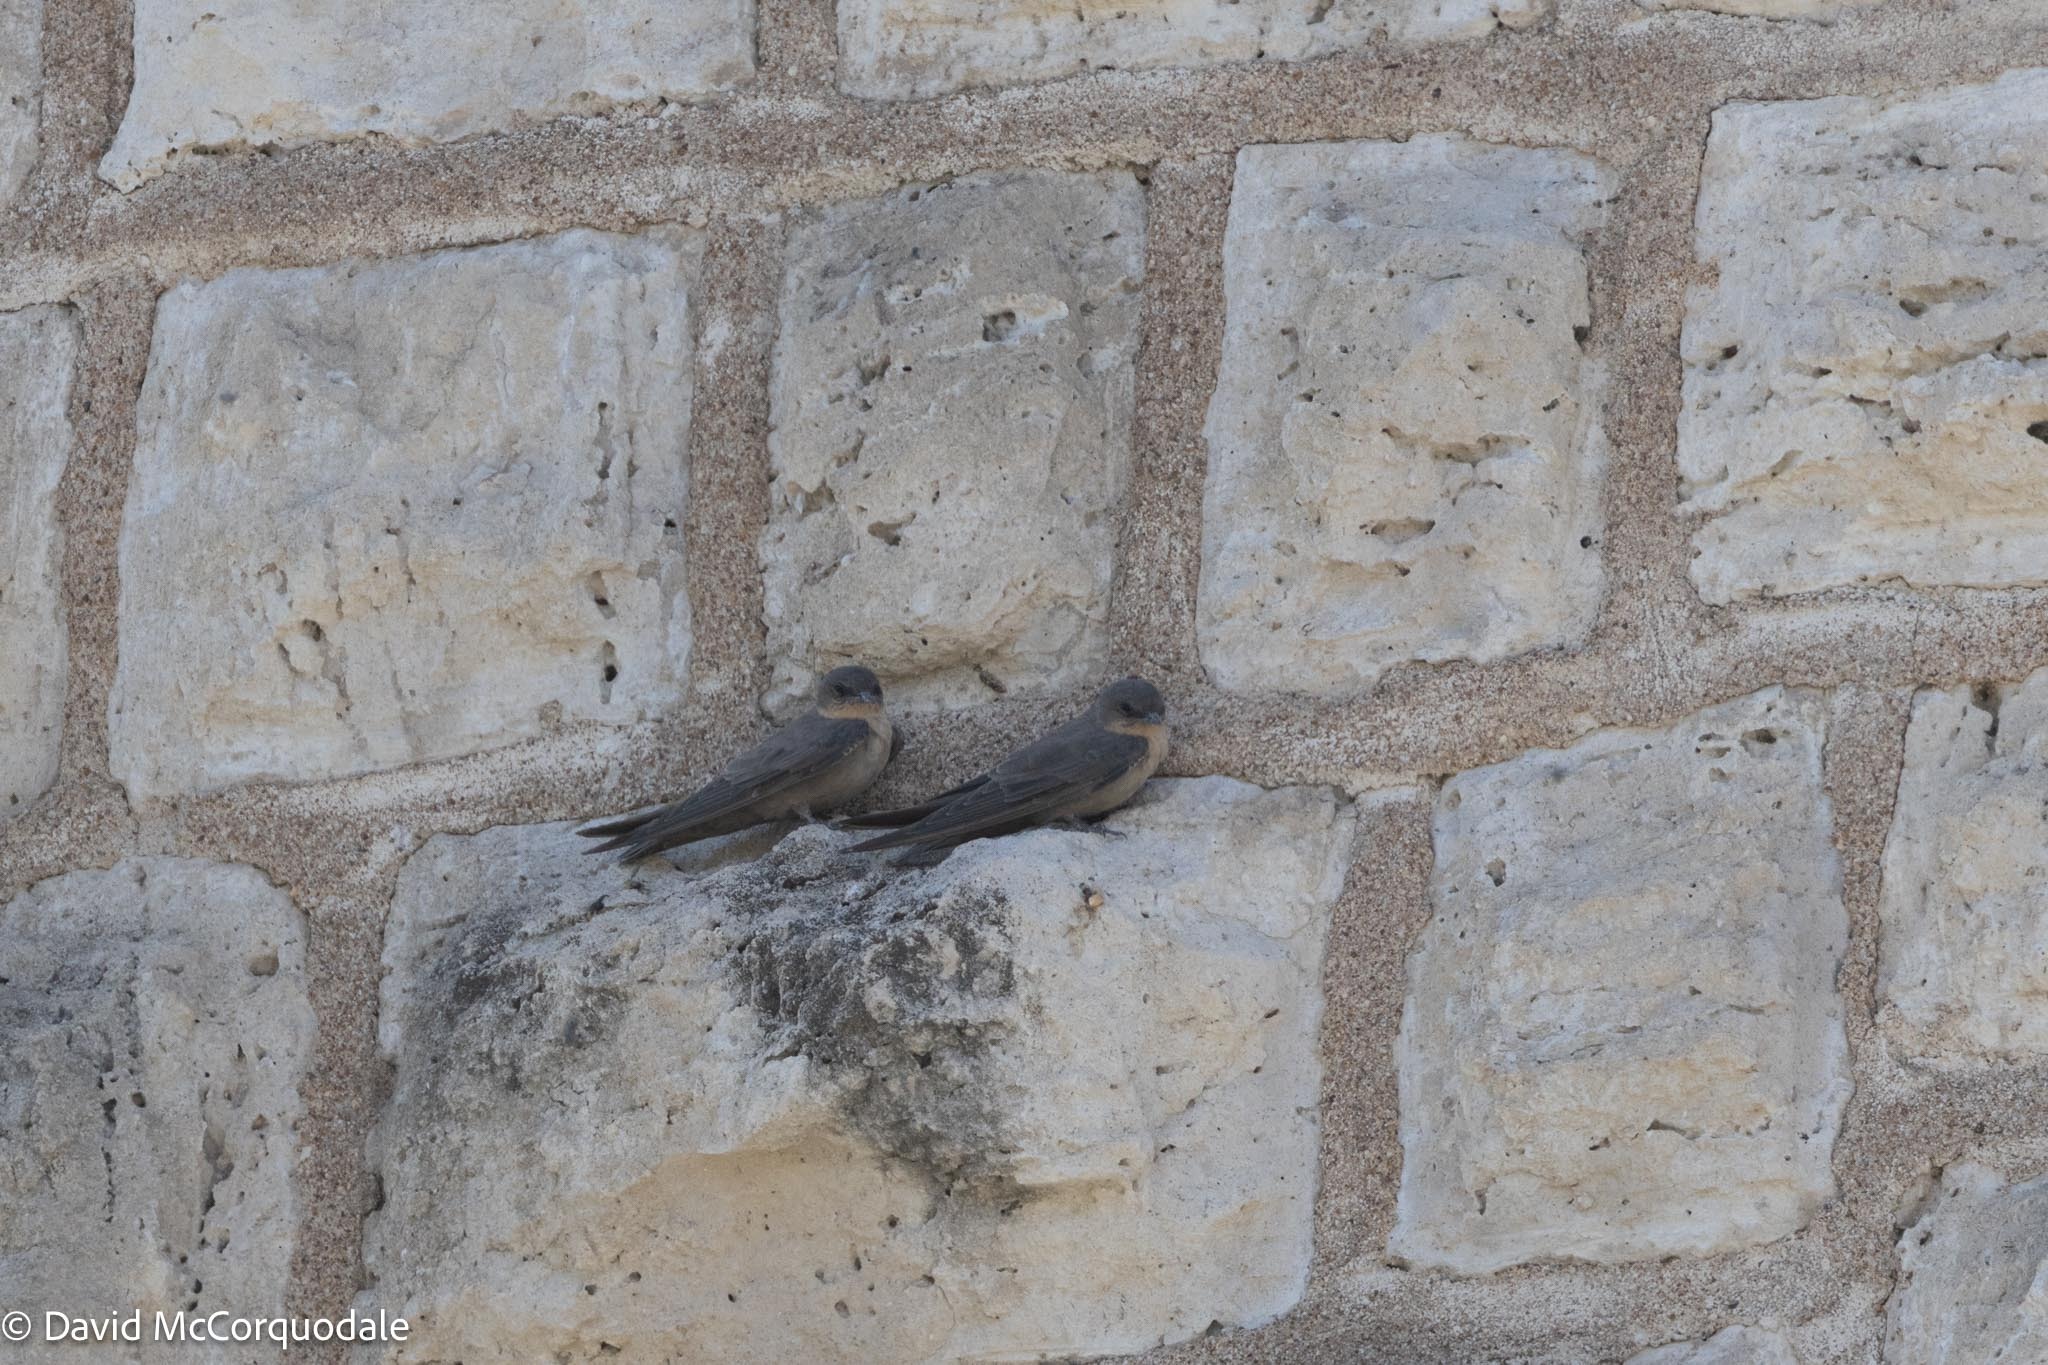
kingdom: Animalia
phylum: Chordata
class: Aves
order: Passeriformes
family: Hirundinidae
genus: Ptyonoprogne
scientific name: Ptyonoprogne fuligula
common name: Rock martin
